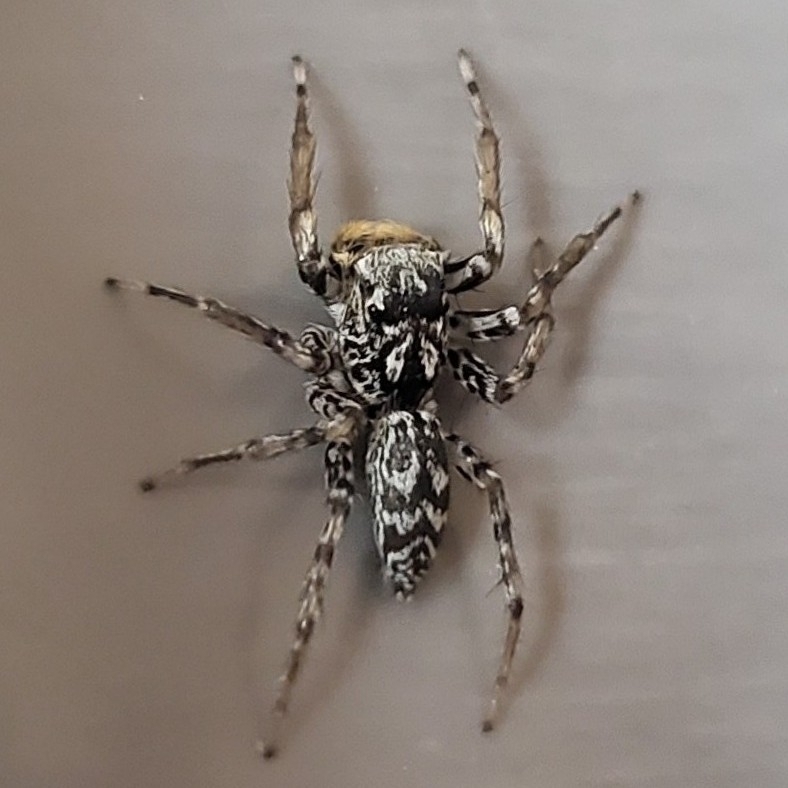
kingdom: Animalia
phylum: Arthropoda
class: Arachnida
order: Araneae
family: Salticidae
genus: Maevia
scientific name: Maevia inclemens
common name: Dimorphic jumper
